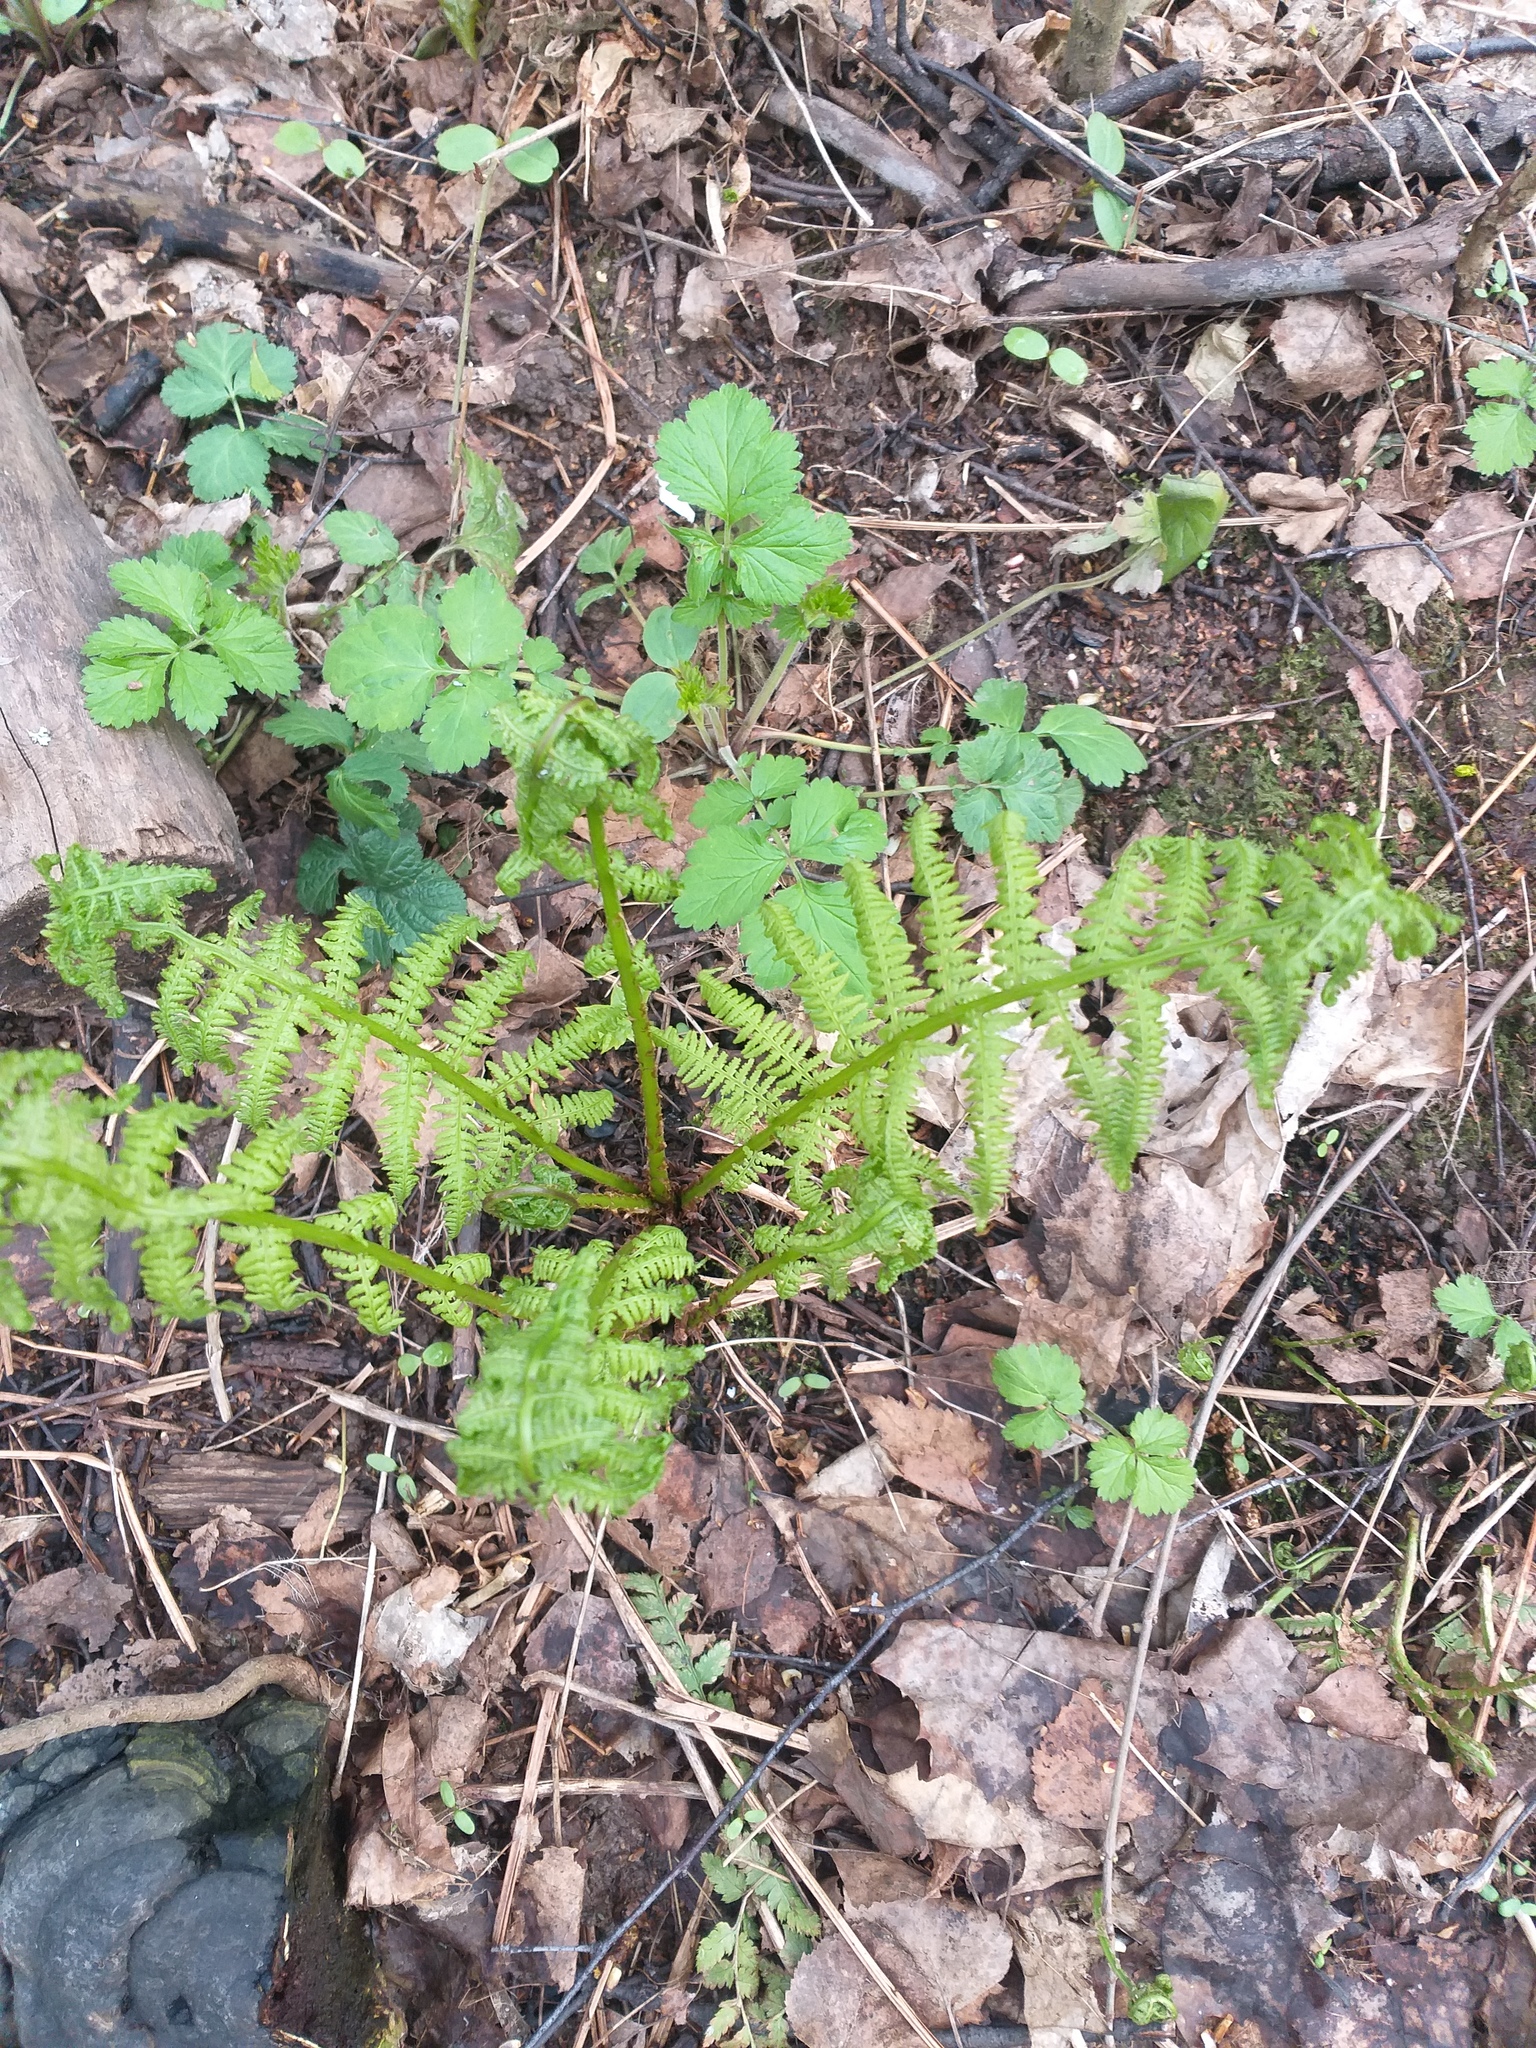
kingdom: Plantae
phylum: Tracheophyta
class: Polypodiopsida
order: Polypodiales
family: Athyriaceae
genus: Athyrium
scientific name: Athyrium filix-femina
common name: Lady fern
